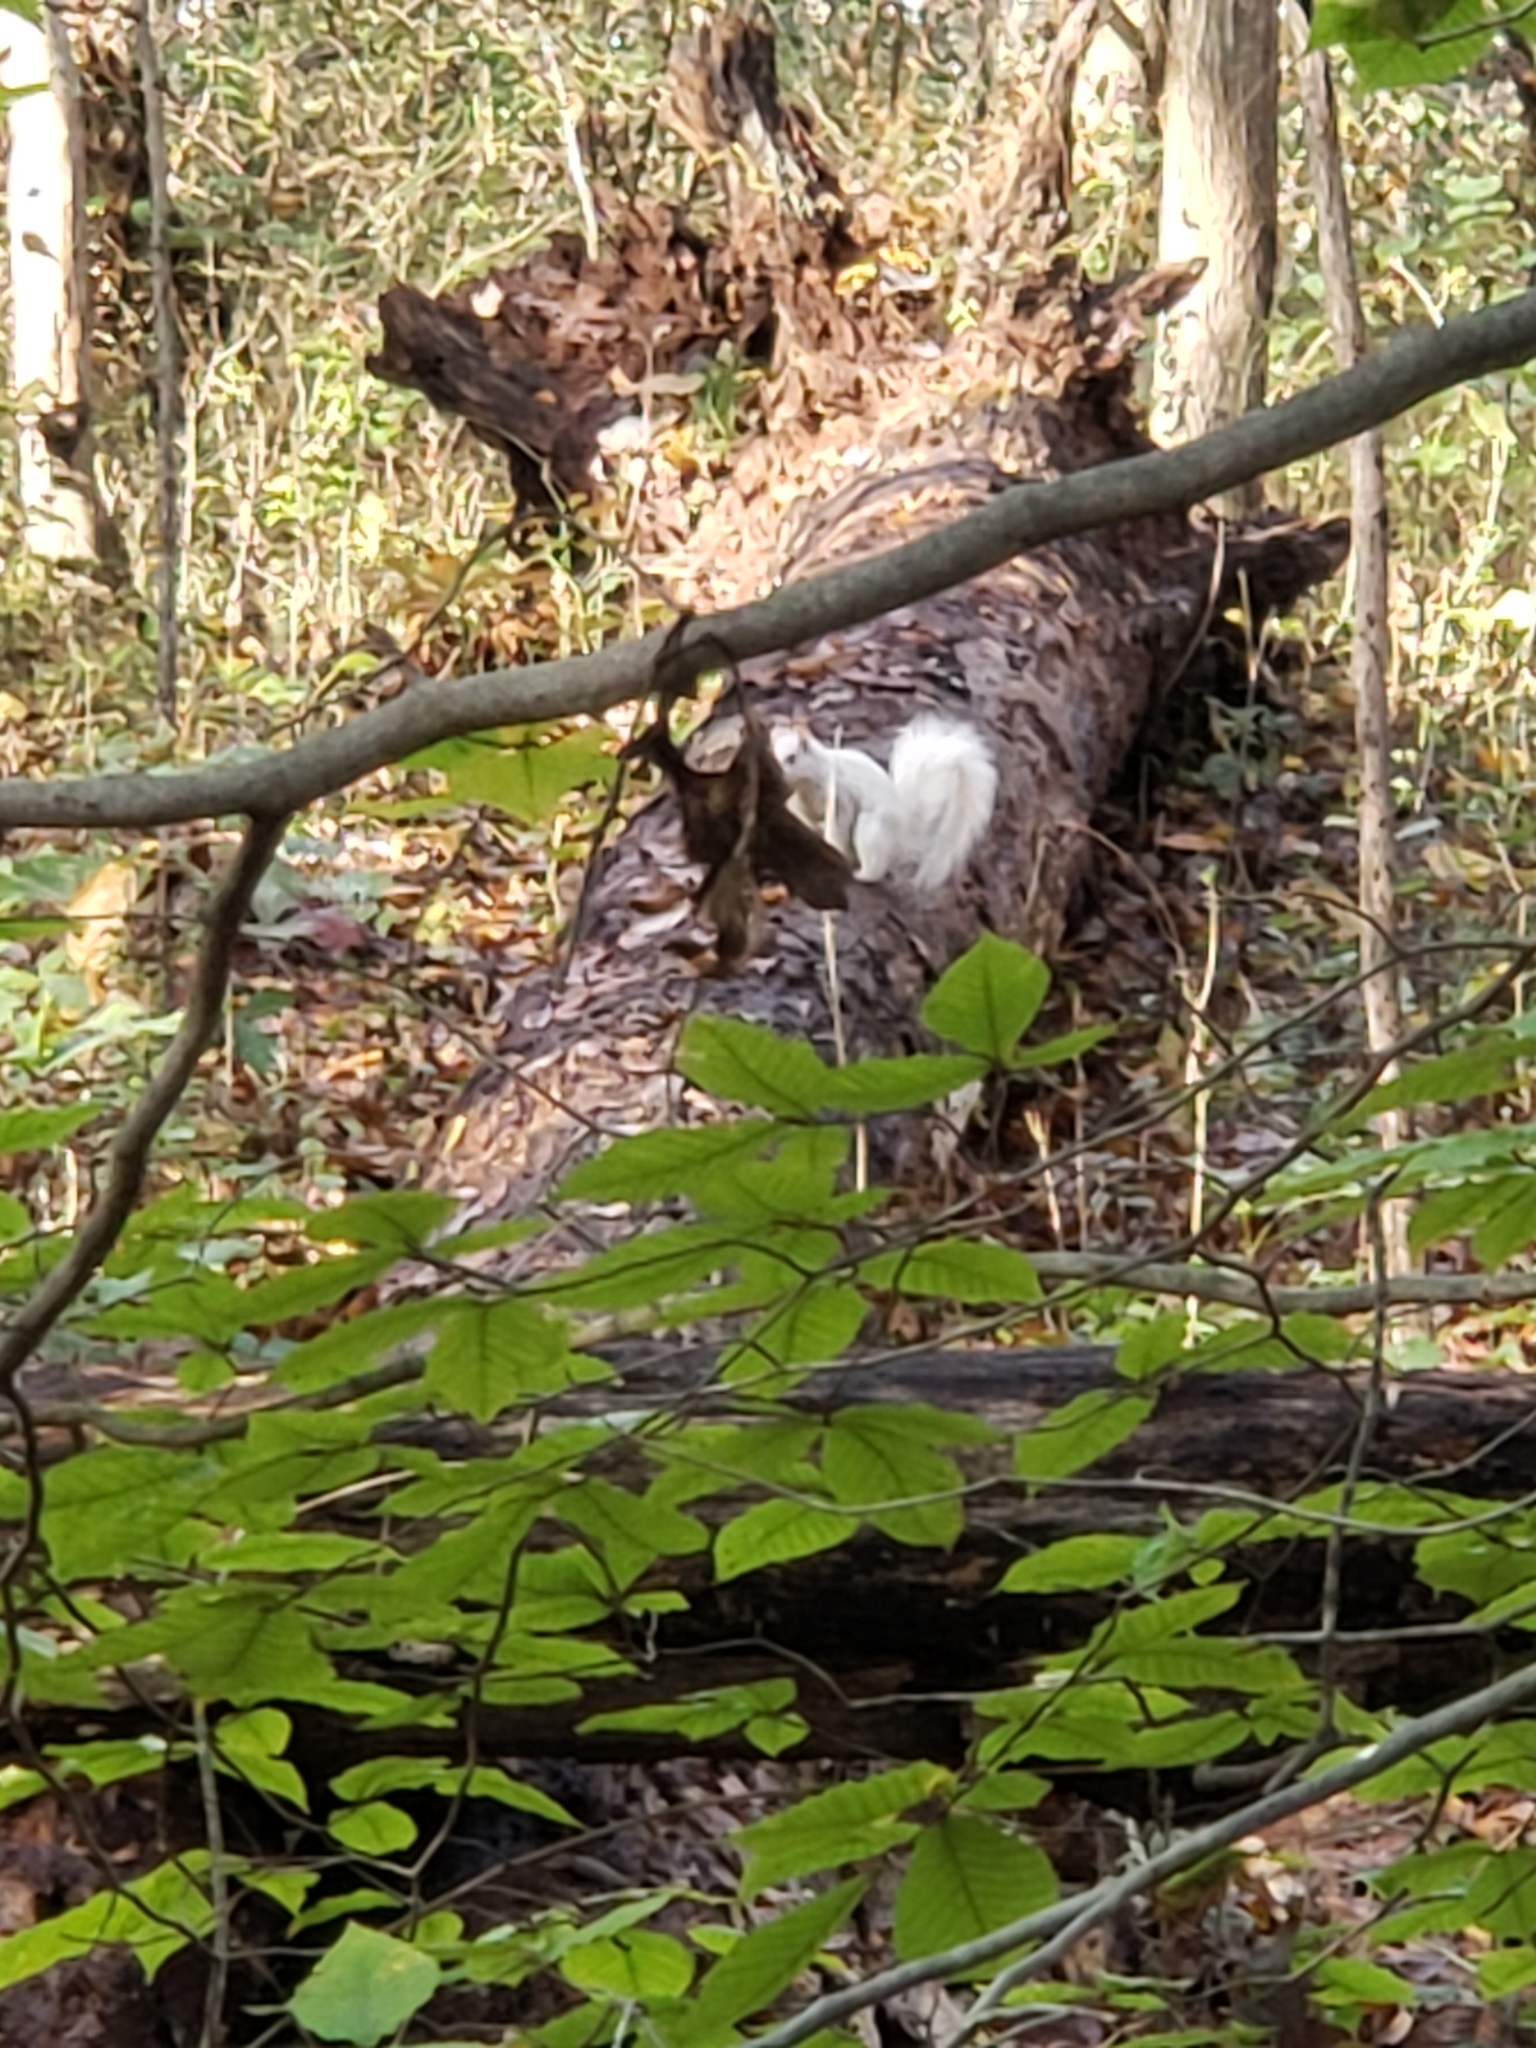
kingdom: Animalia
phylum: Chordata
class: Mammalia
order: Rodentia
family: Sciuridae
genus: Sciurus
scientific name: Sciurus carolinensis
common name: Eastern gray squirrel
